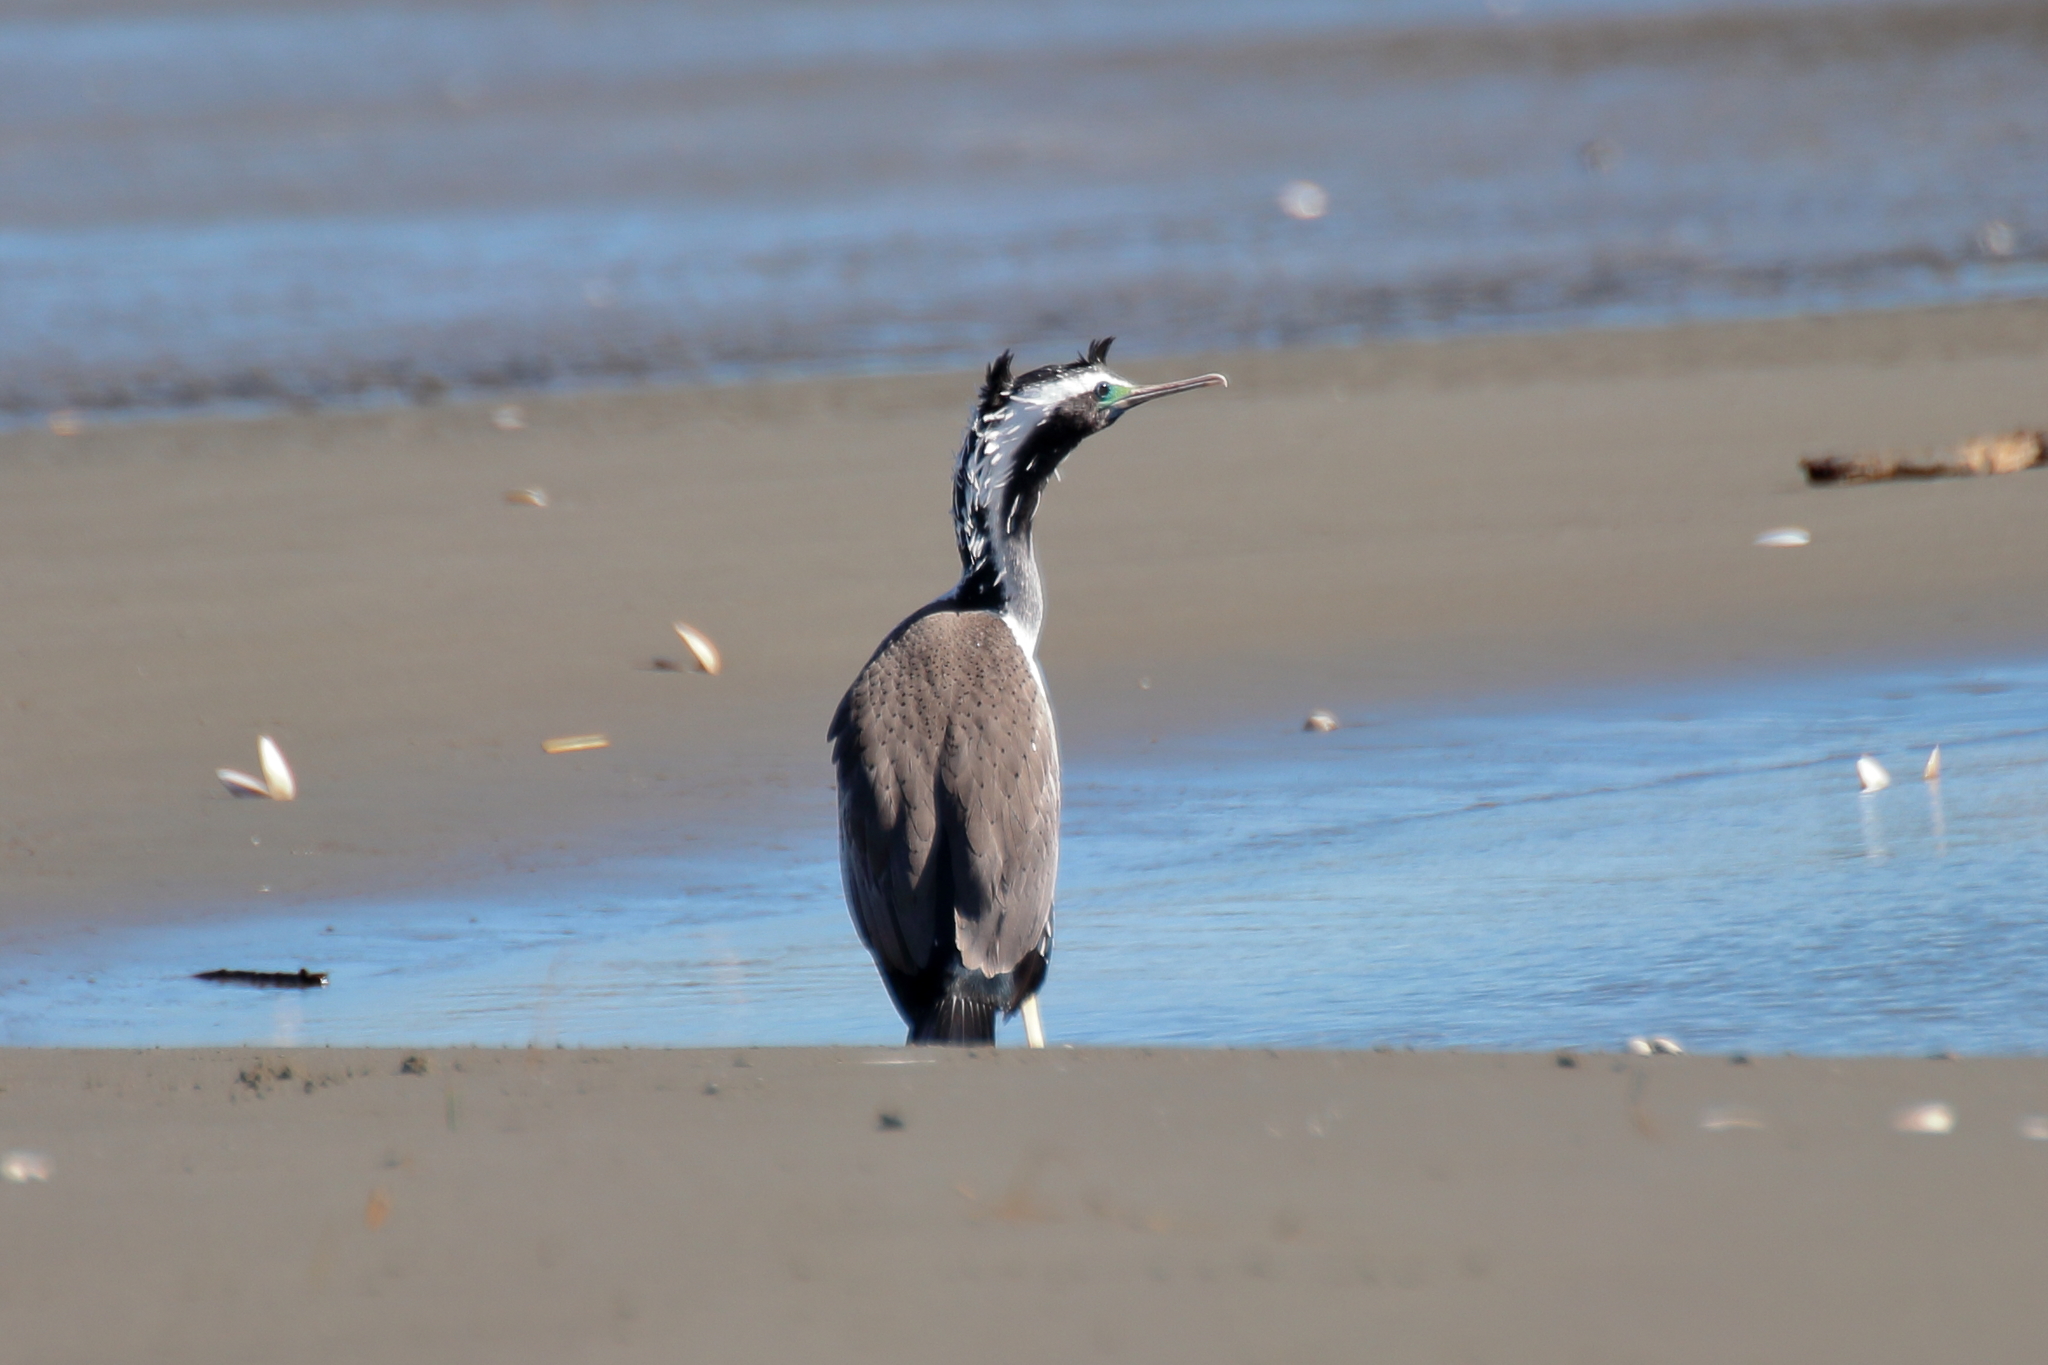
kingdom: Animalia
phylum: Chordata
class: Aves
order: Suliformes
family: Phalacrocoracidae
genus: Phalacrocorax
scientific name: Phalacrocorax punctatus
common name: Spotted shag
